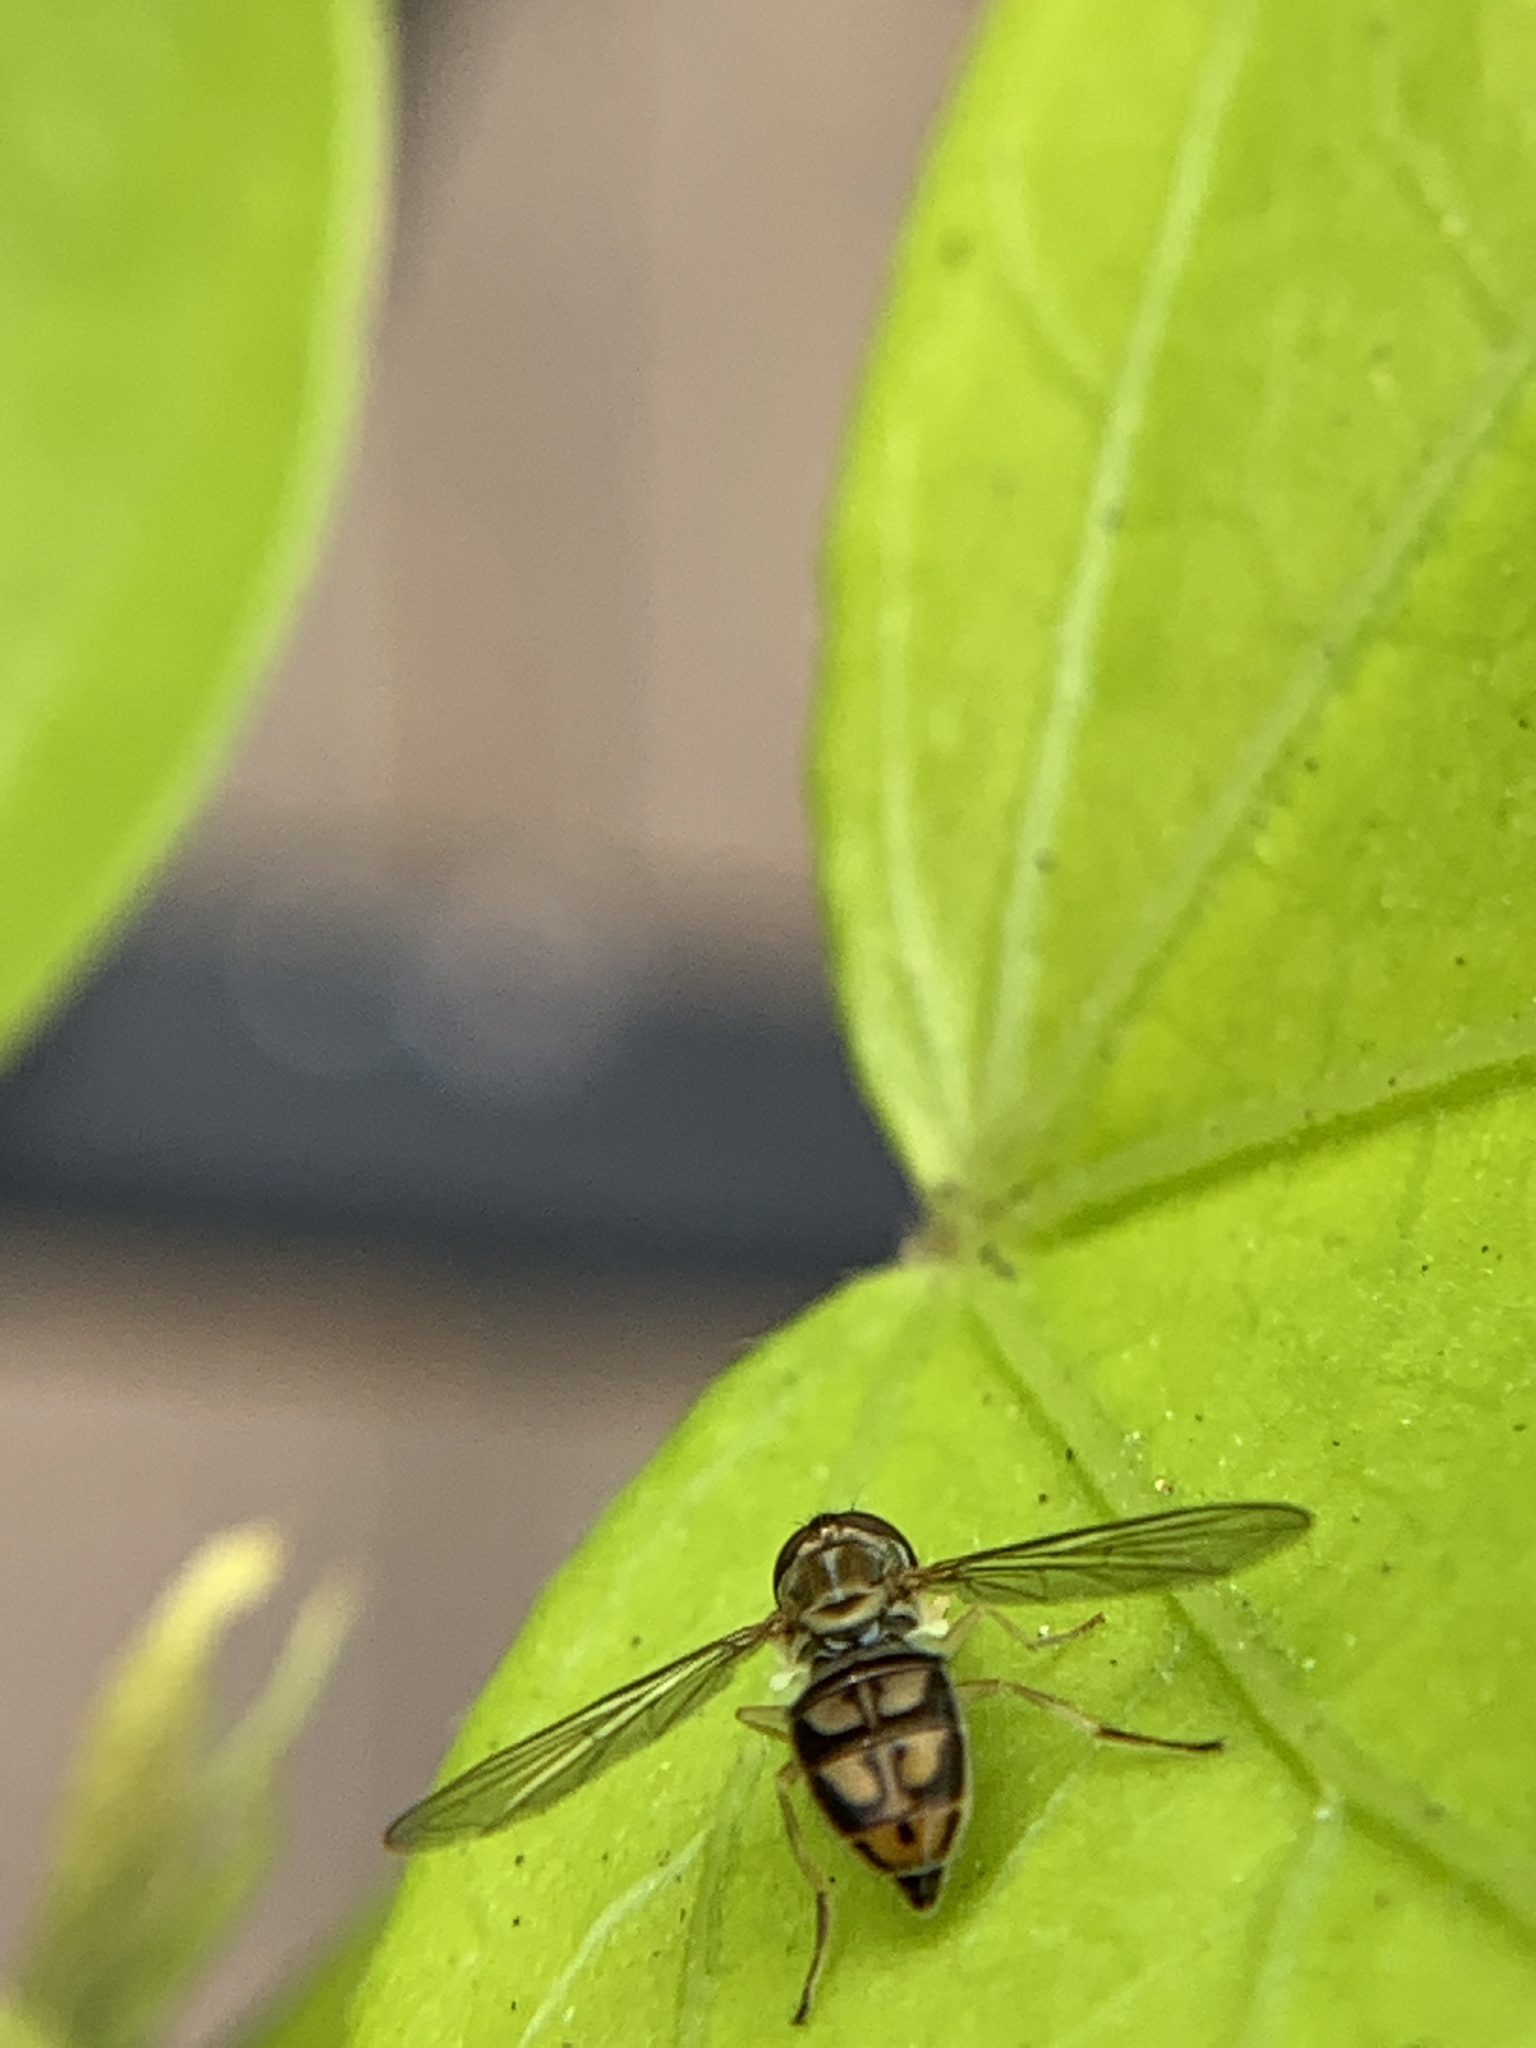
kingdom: Animalia
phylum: Arthropoda
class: Insecta
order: Diptera
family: Syrphidae
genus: Toxomerus
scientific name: Toxomerus marginatus
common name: Syrphid fly
